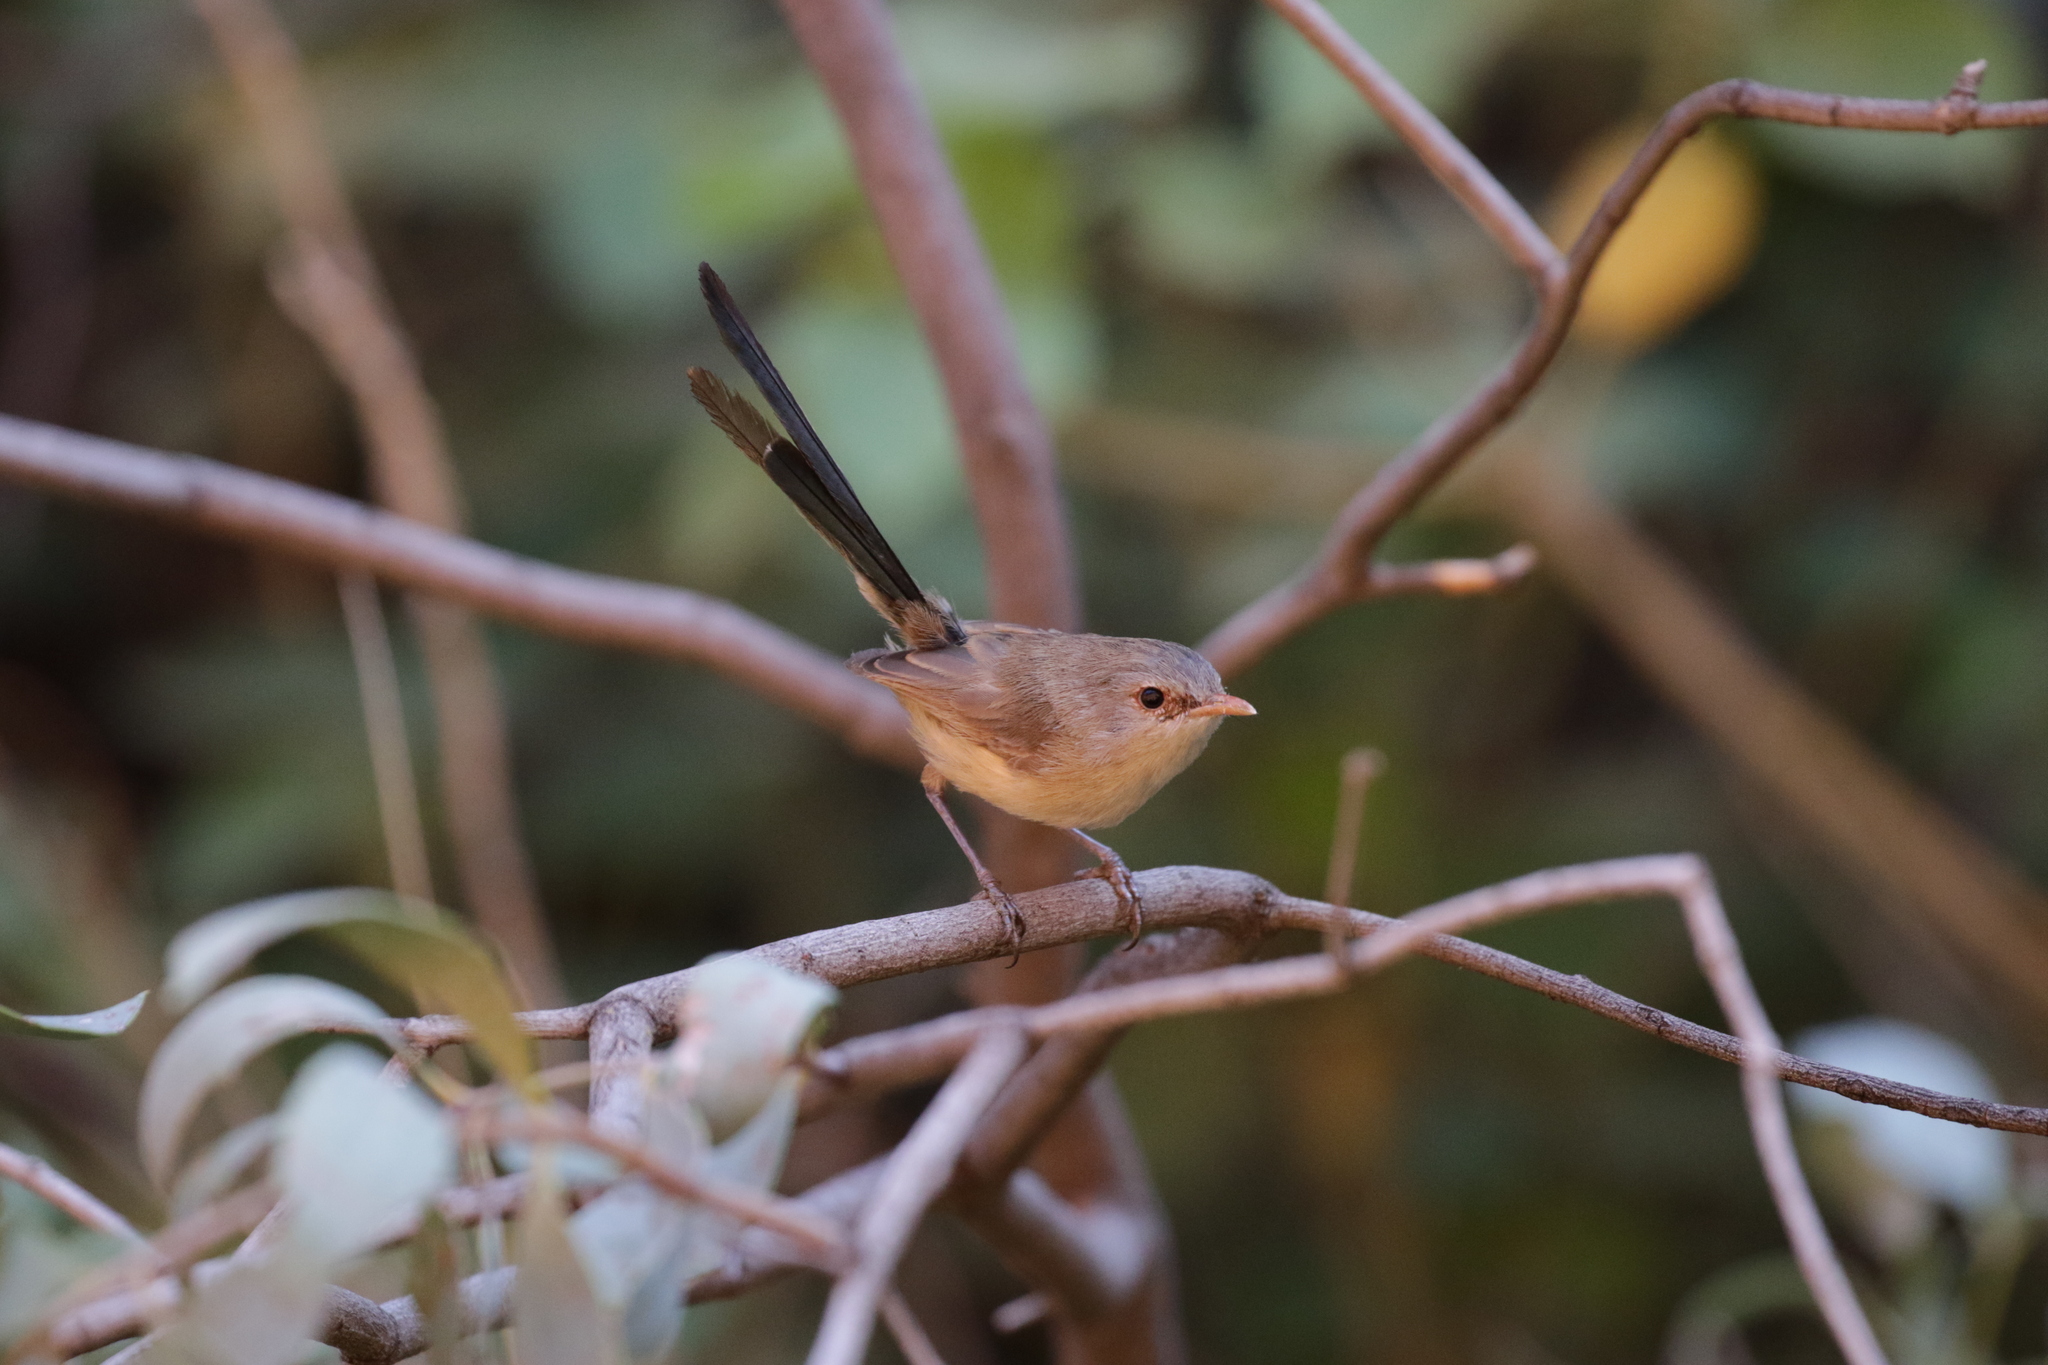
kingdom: Animalia
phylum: Chordata
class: Aves
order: Passeriformes
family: Maluridae
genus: Malurus
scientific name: Malurus assimilis
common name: Purple-backed fairywren
